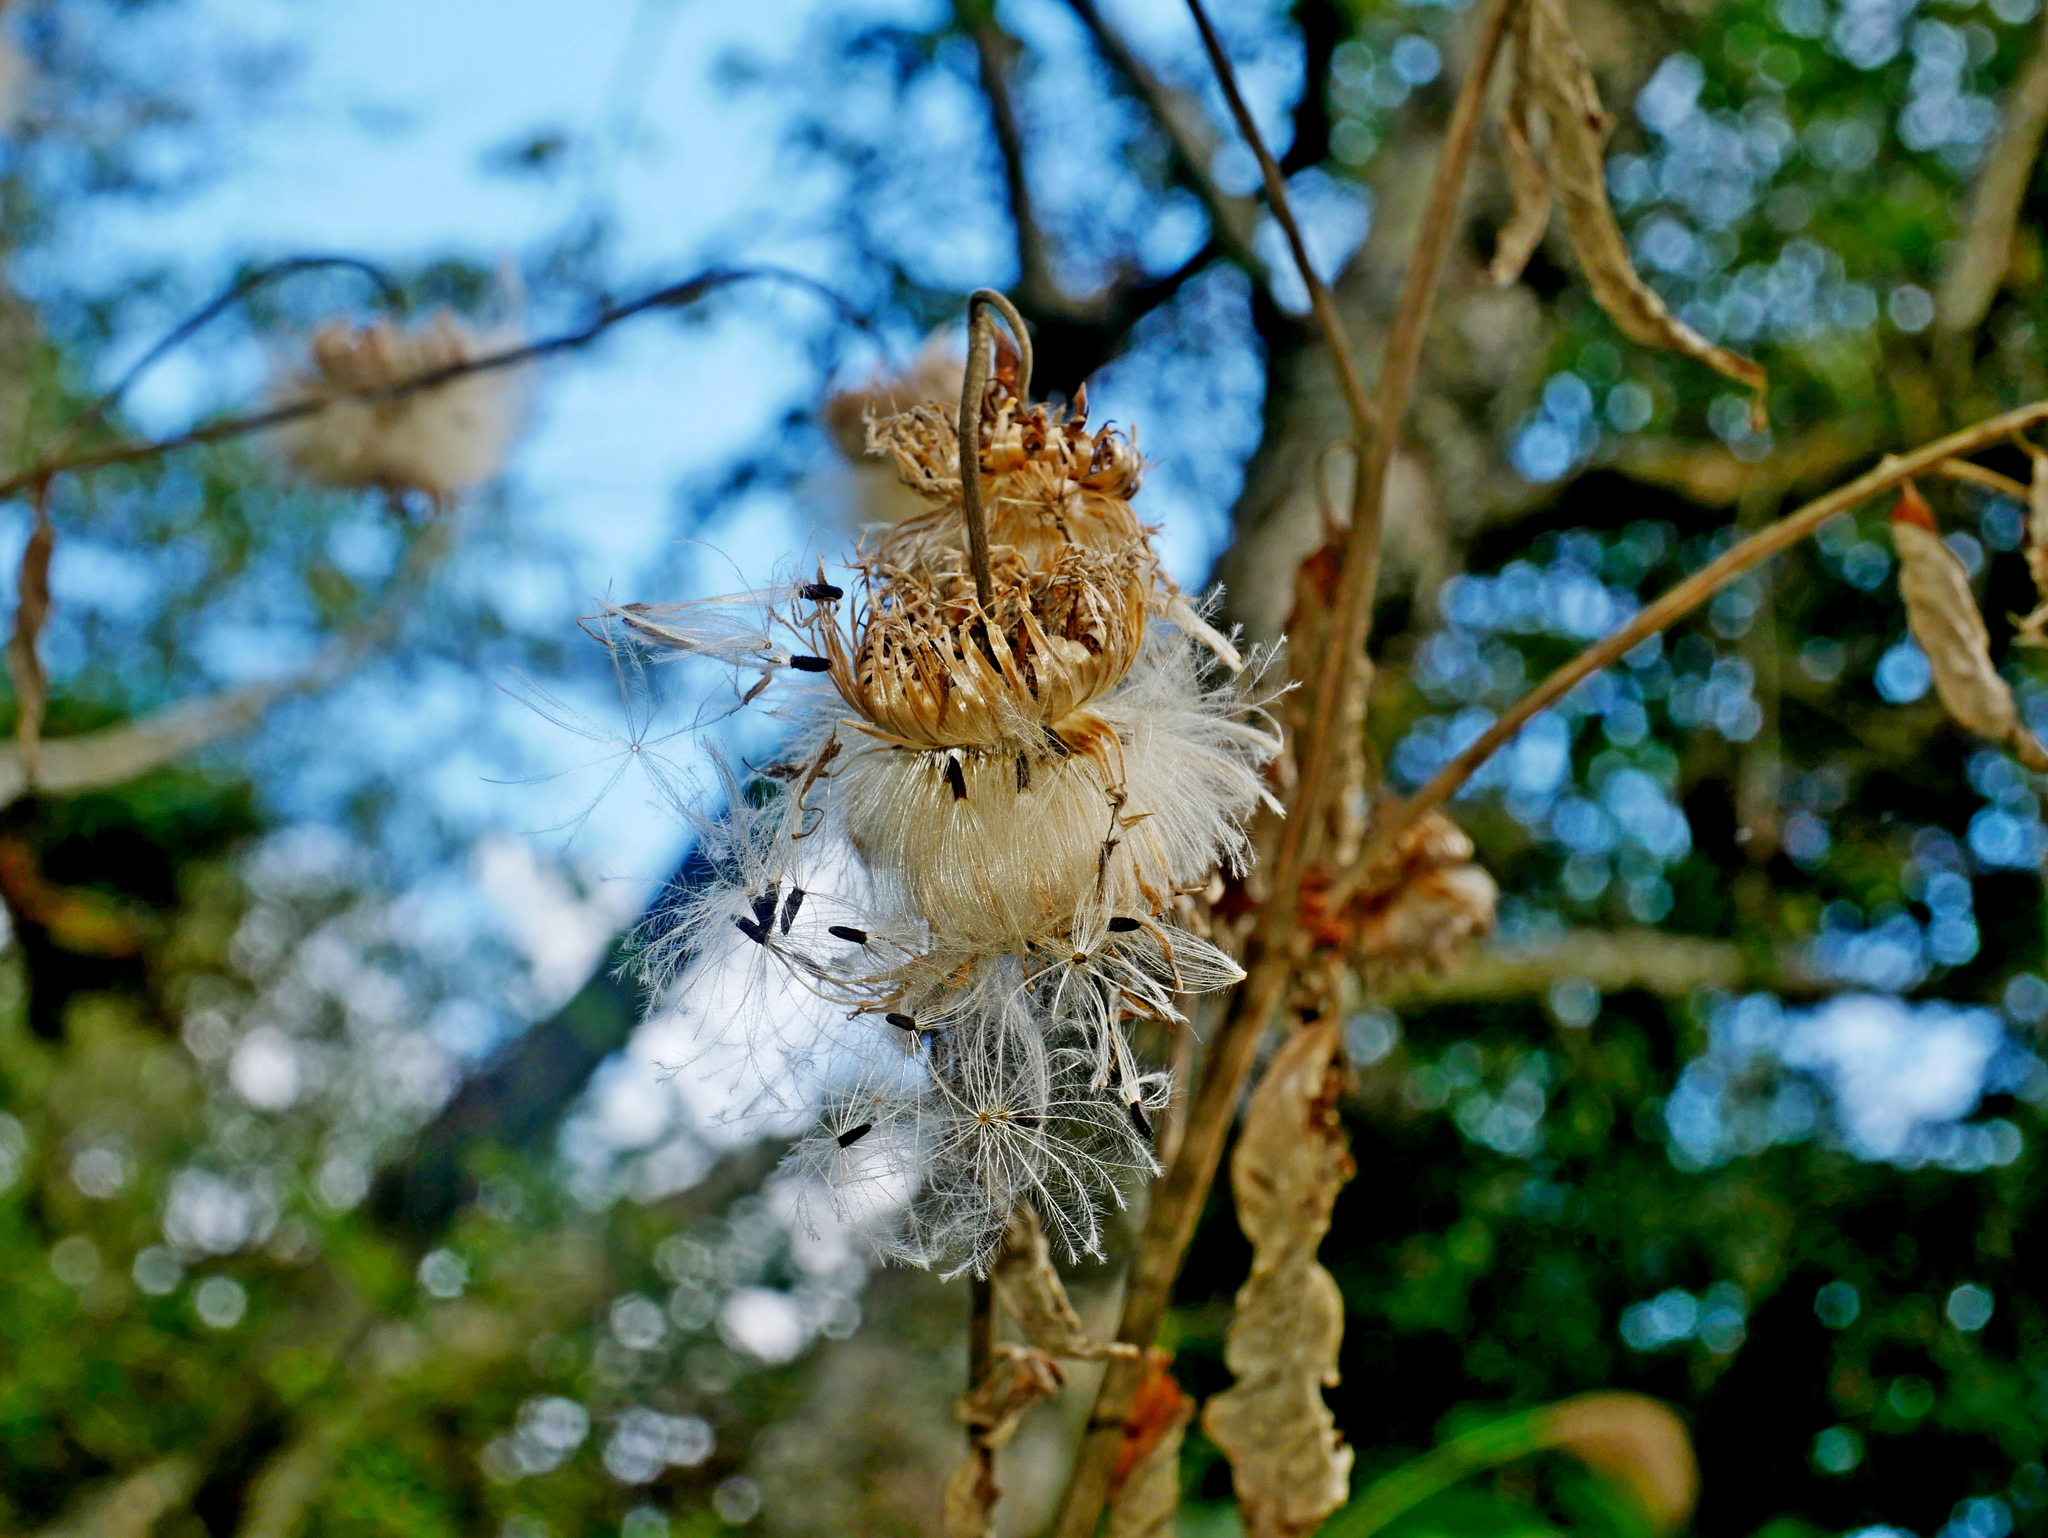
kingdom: Plantae
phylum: Tracheophyta
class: Magnoliopsida
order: Asterales
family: Asteraceae
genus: Jurinea
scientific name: Jurinea deltoidea
